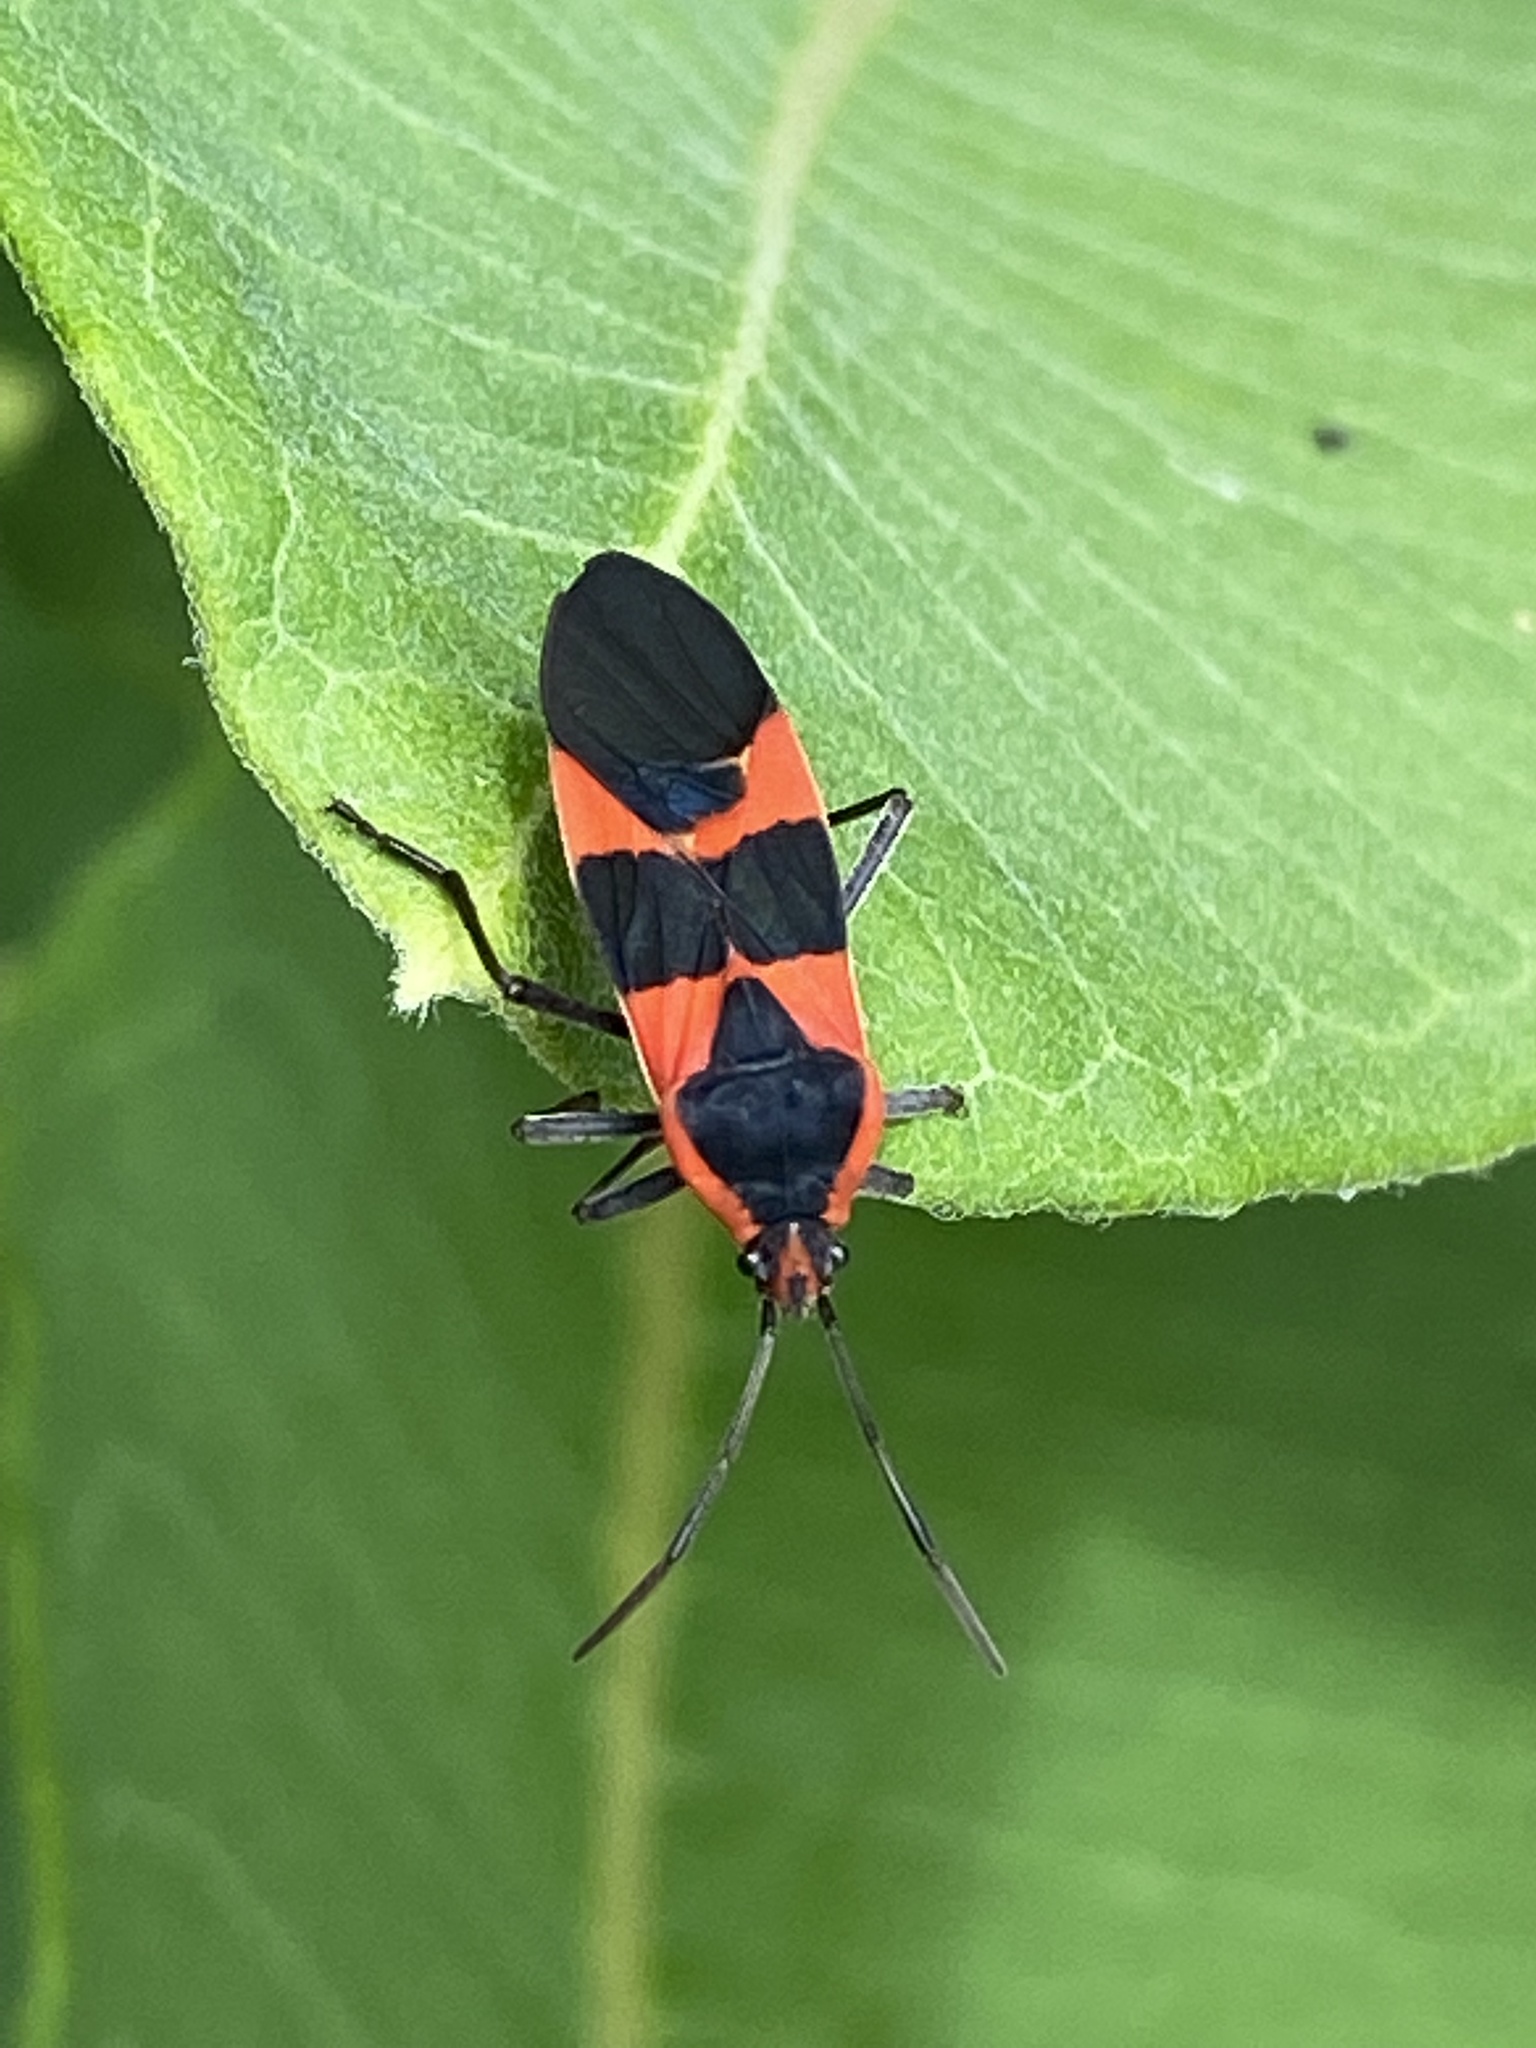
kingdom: Animalia
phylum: Arthropoda
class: Insecta
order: Hemiptera
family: Lygaeidae
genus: Oncopeltus
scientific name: Oncopeltus fasciatus
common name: Large milkweed bug
